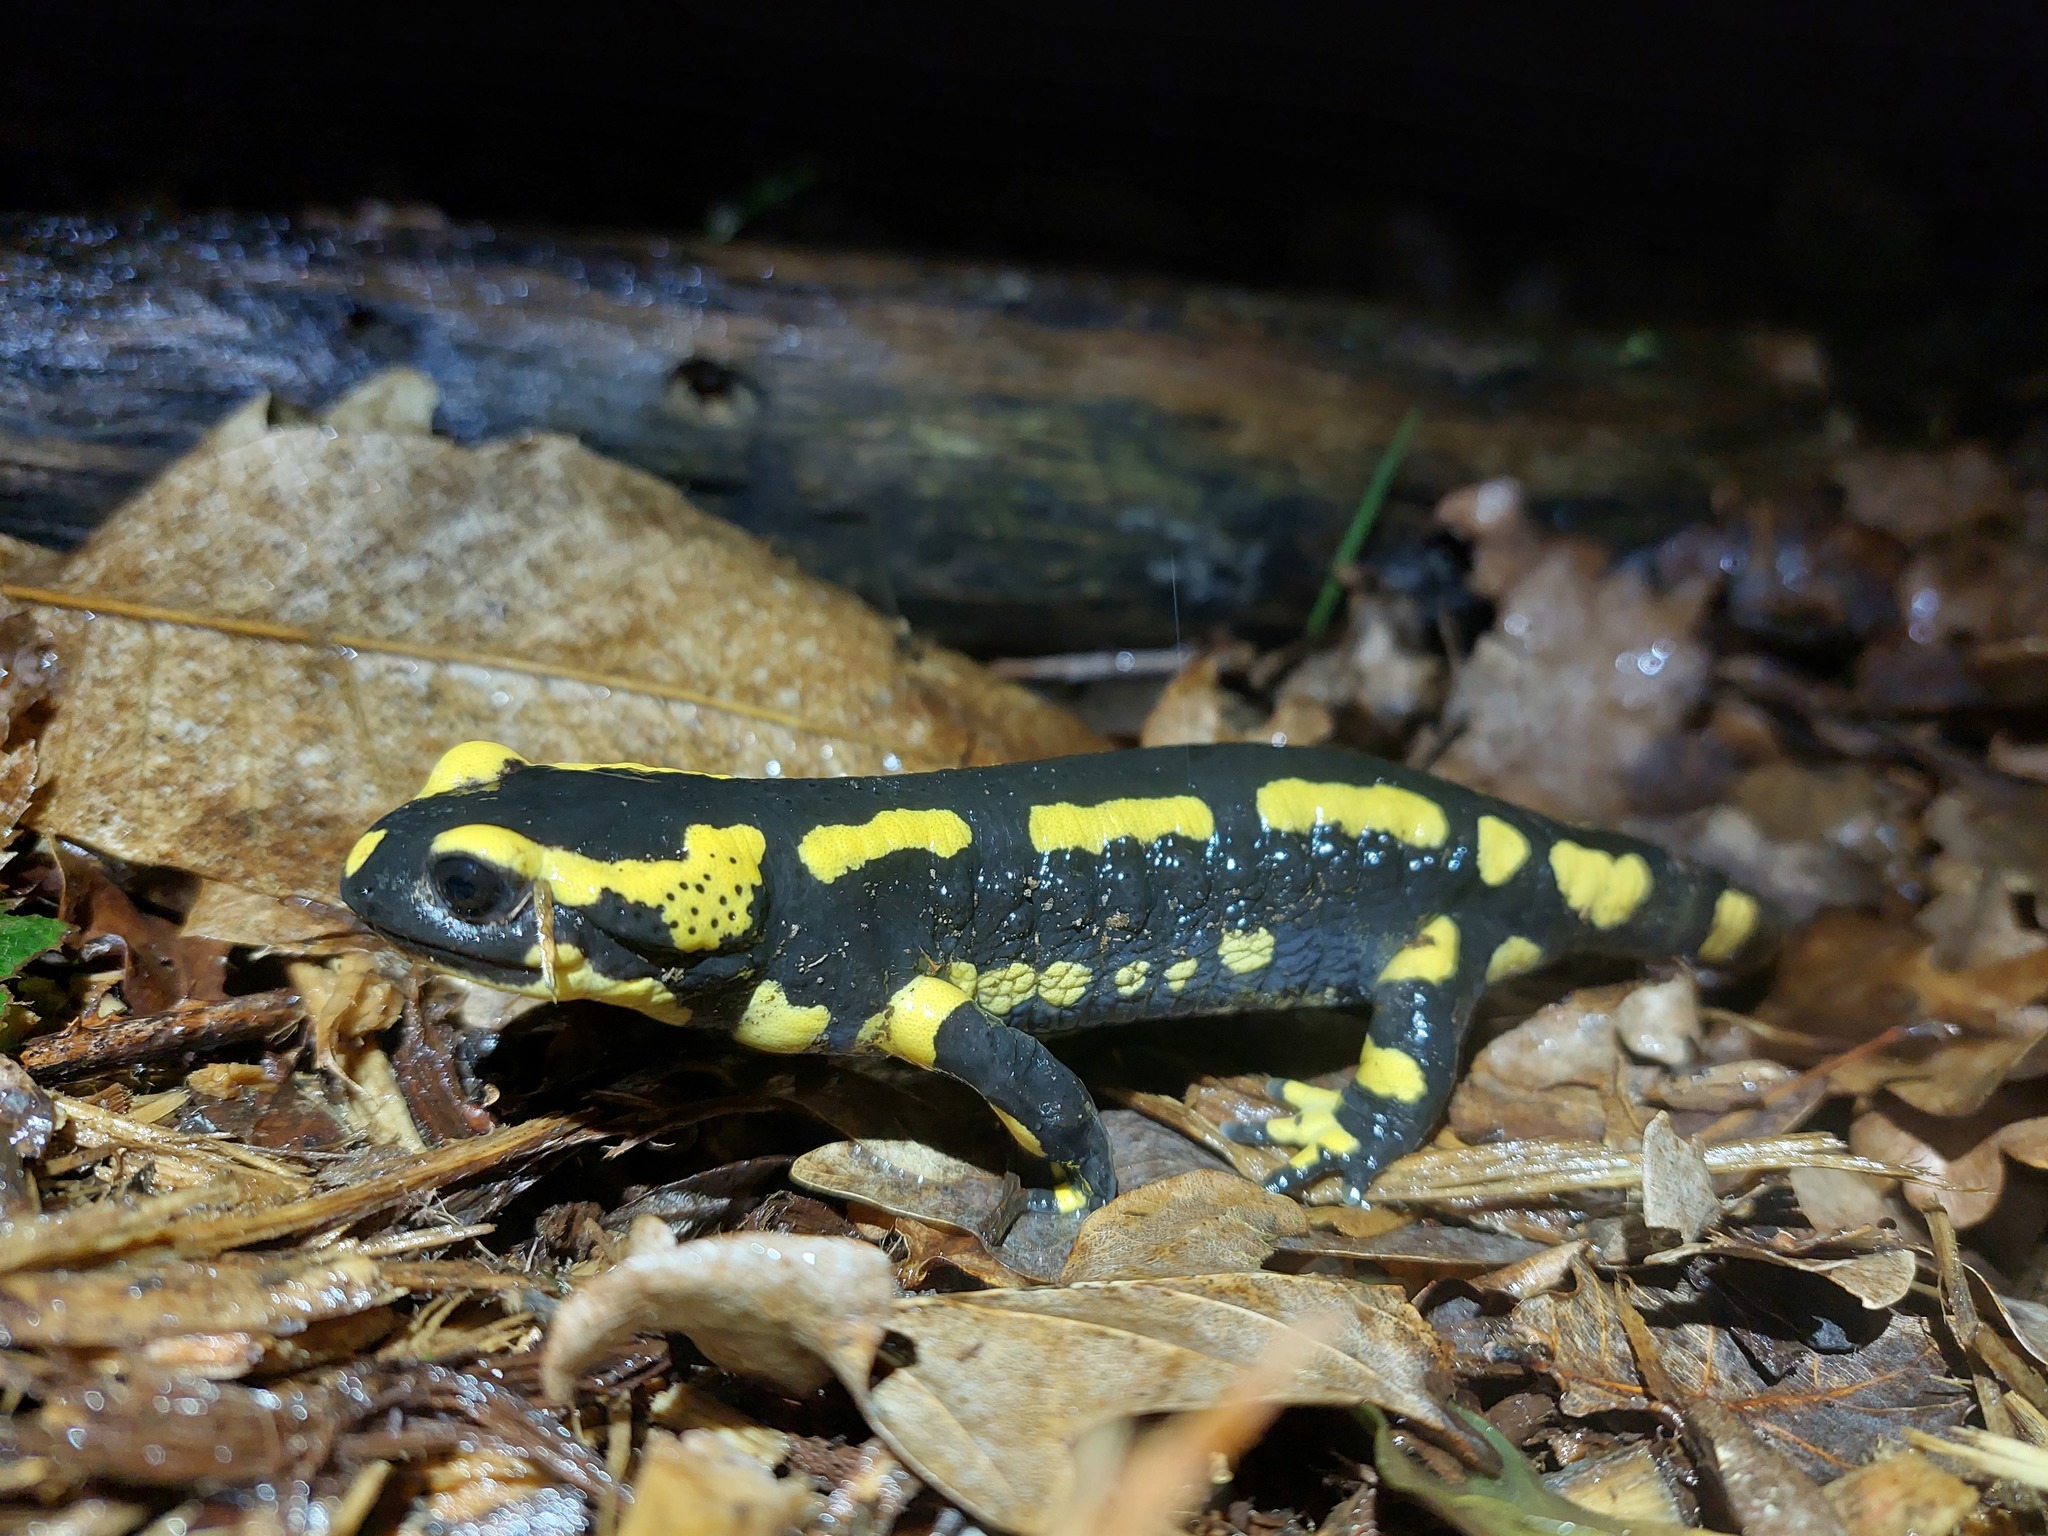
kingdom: Animalia
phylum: Chordata
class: Amphibia
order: Caudata
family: Salamandridae
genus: Salamandra
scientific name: Salamandra salamandra
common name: Fire salamander
